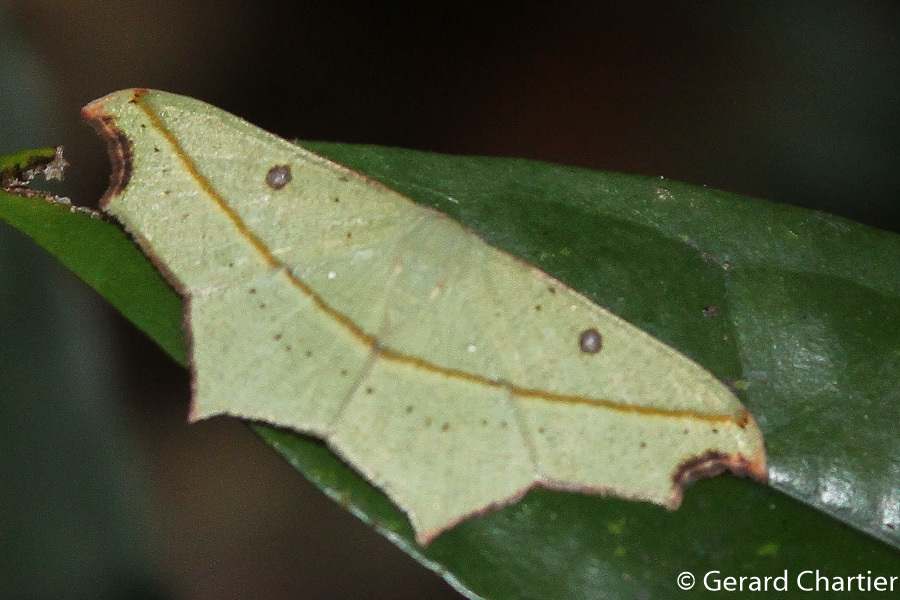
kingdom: Animalia
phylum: Arthropoda
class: Insecta
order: Lepidoptera
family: Geometridae
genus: Traminda
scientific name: Traminda aventiaria
